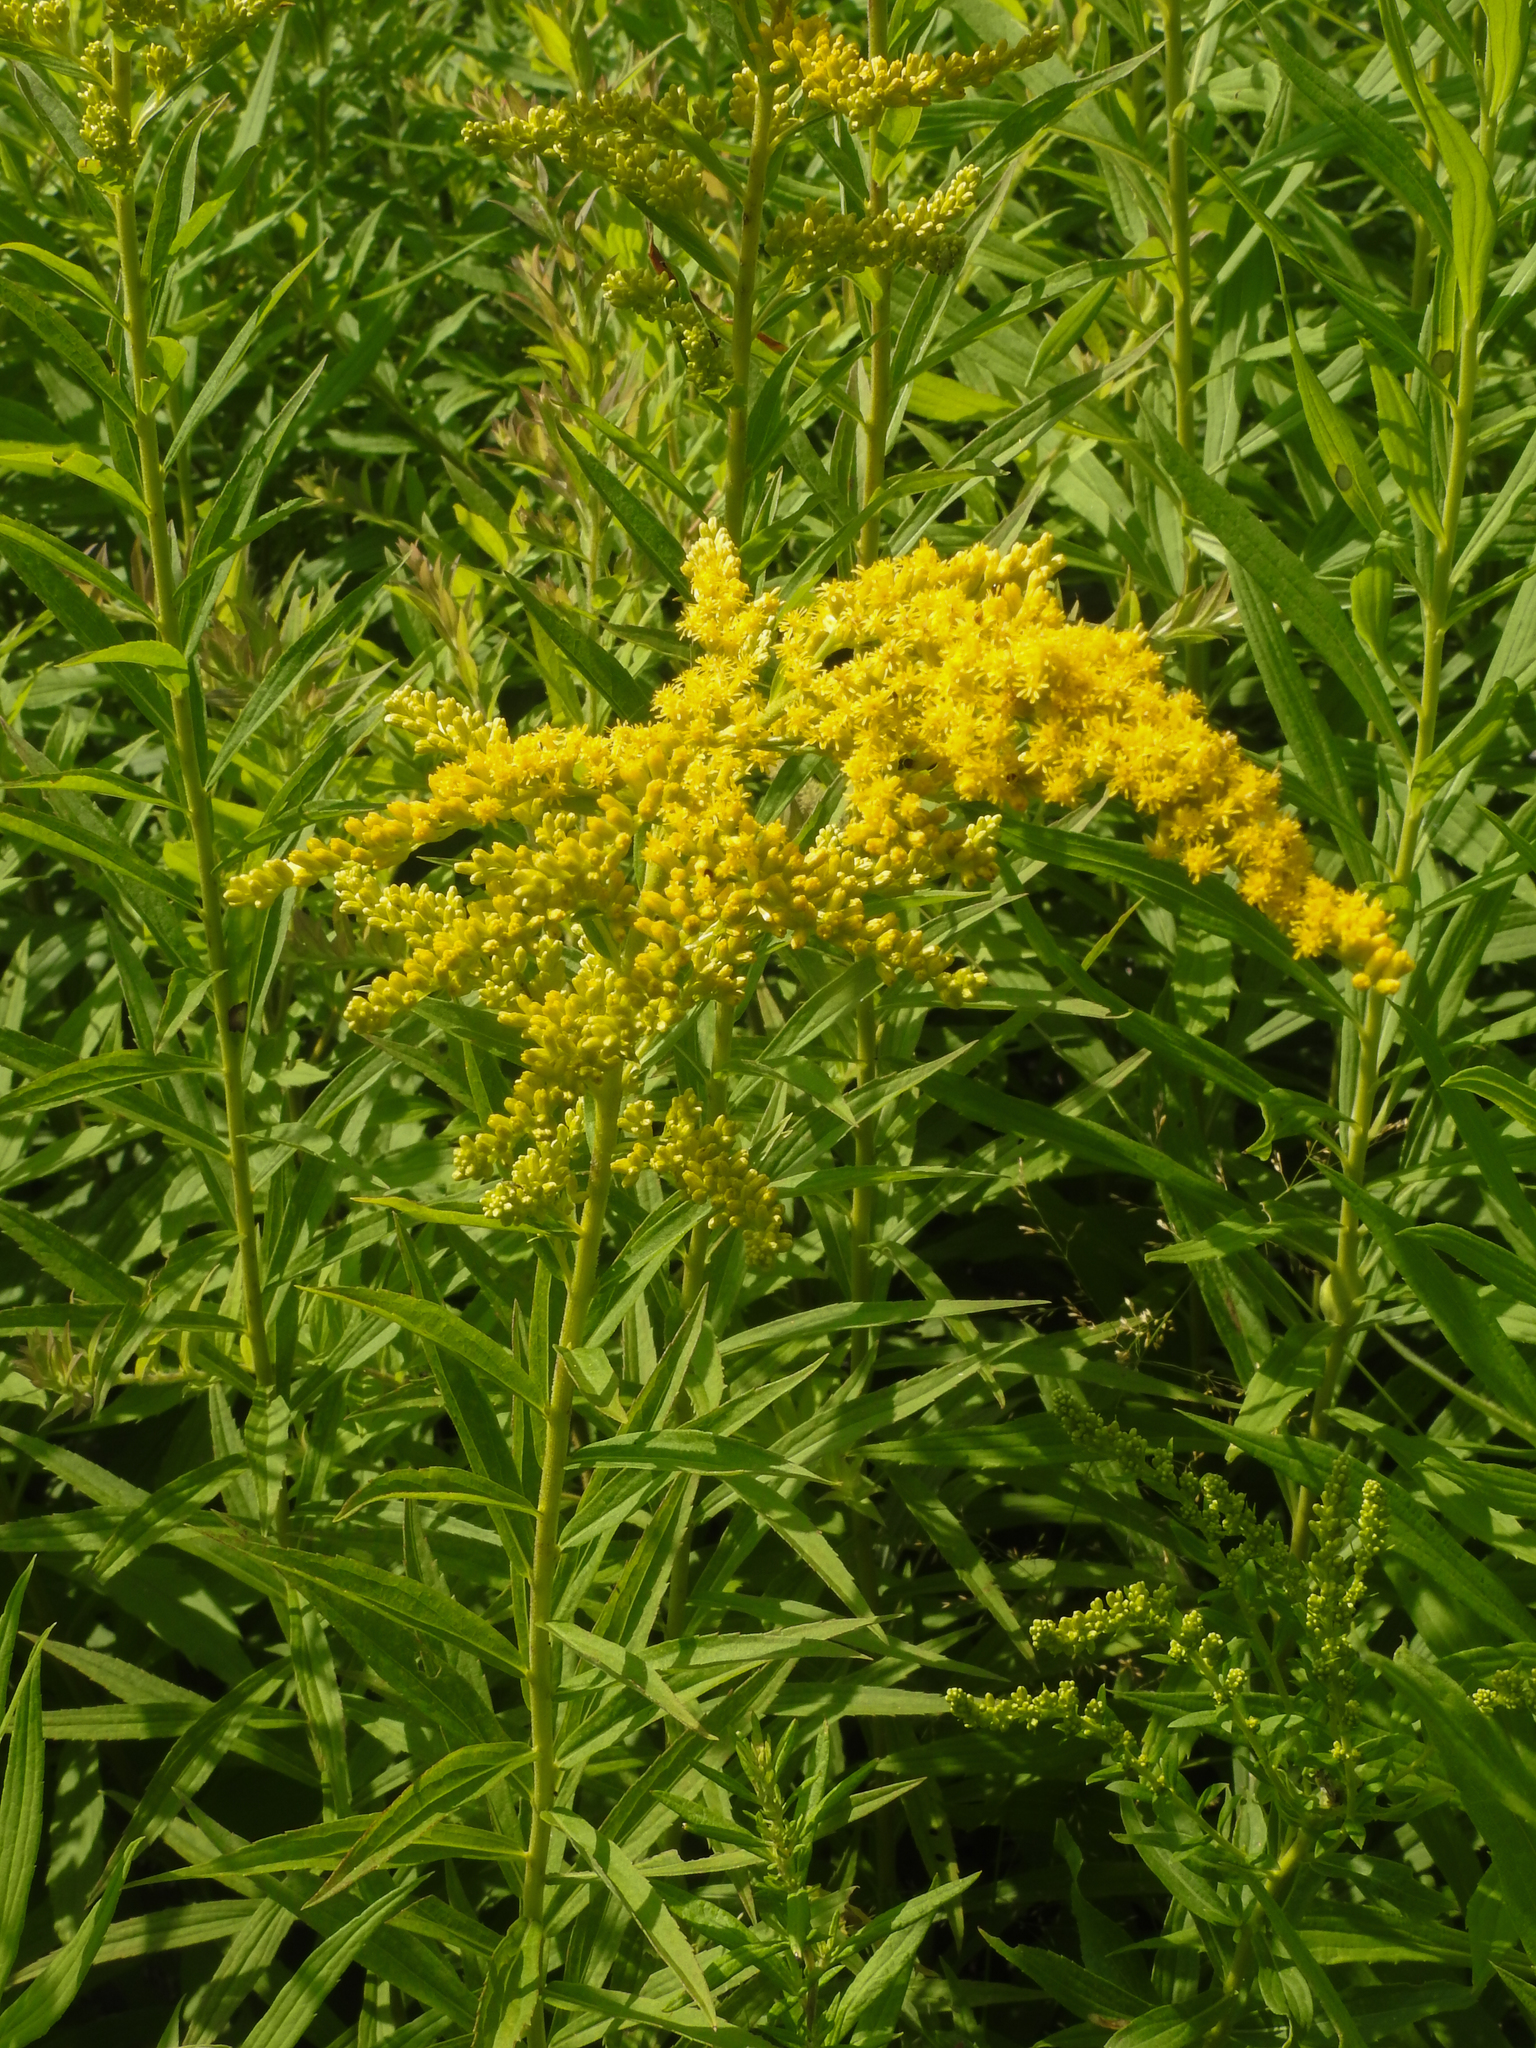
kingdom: Plantae
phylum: Tracheophyta
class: Magnoliopsida
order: Asterales
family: Asteraceae
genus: Solidago
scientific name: Solidago juncea
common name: Early goldenrod
